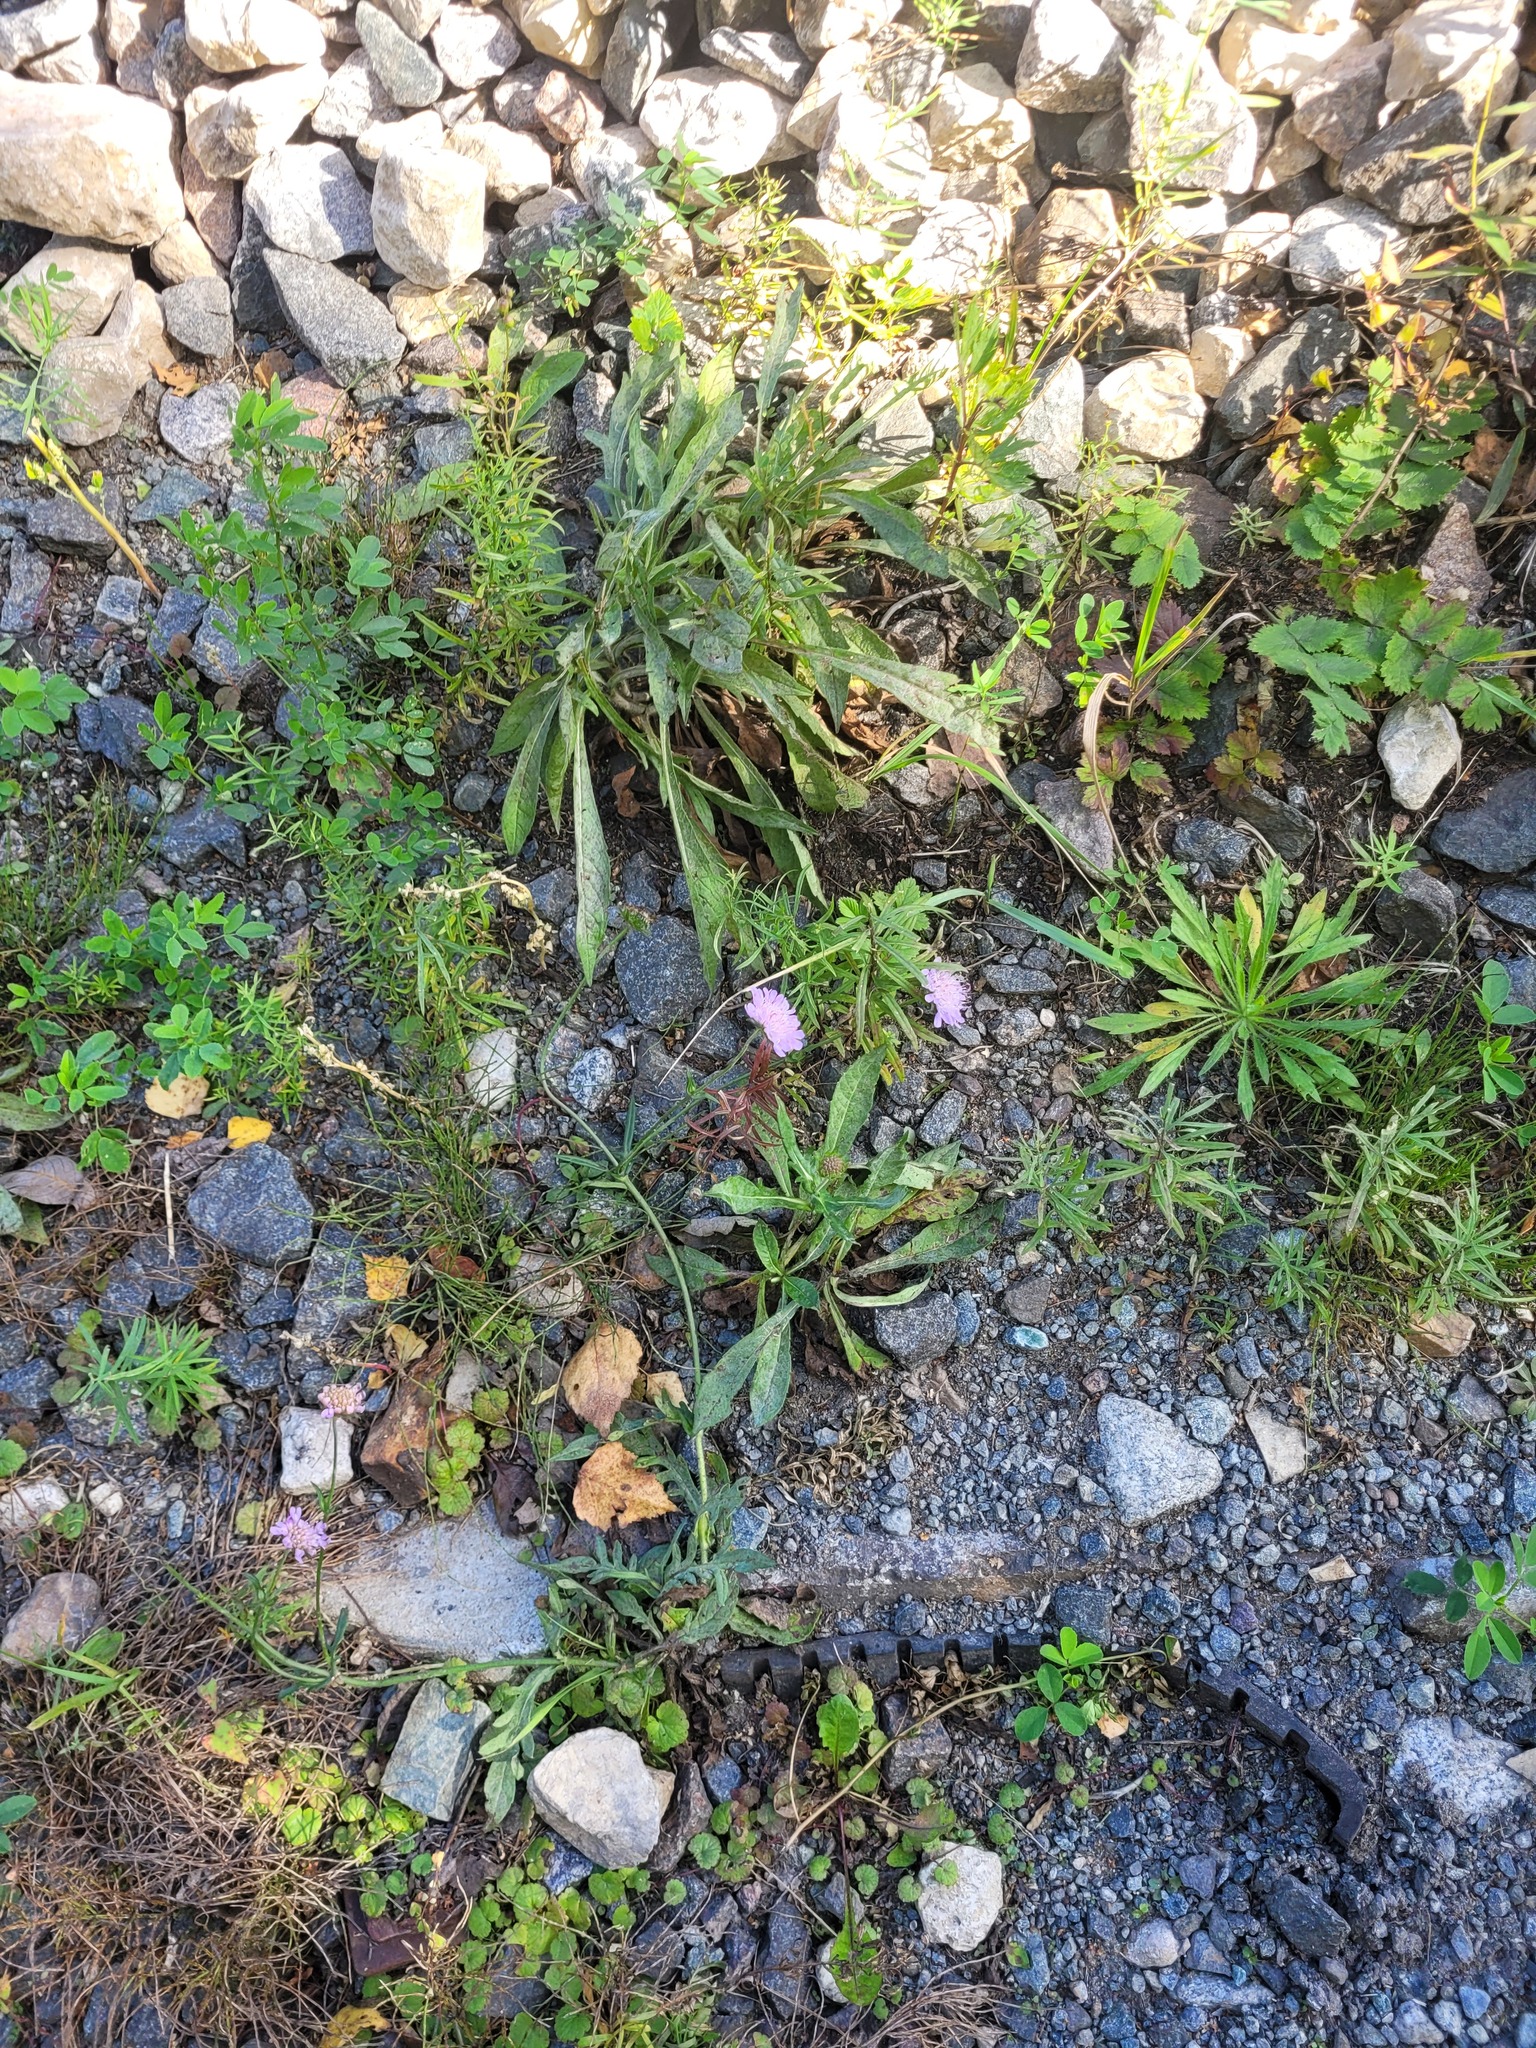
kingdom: Plantae
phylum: Tracheophyta
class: Magnoliopsida
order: Dipsacales
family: Caprifoliaceae
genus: Knautia
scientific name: Knautia arvensis
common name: Field scabiosa
